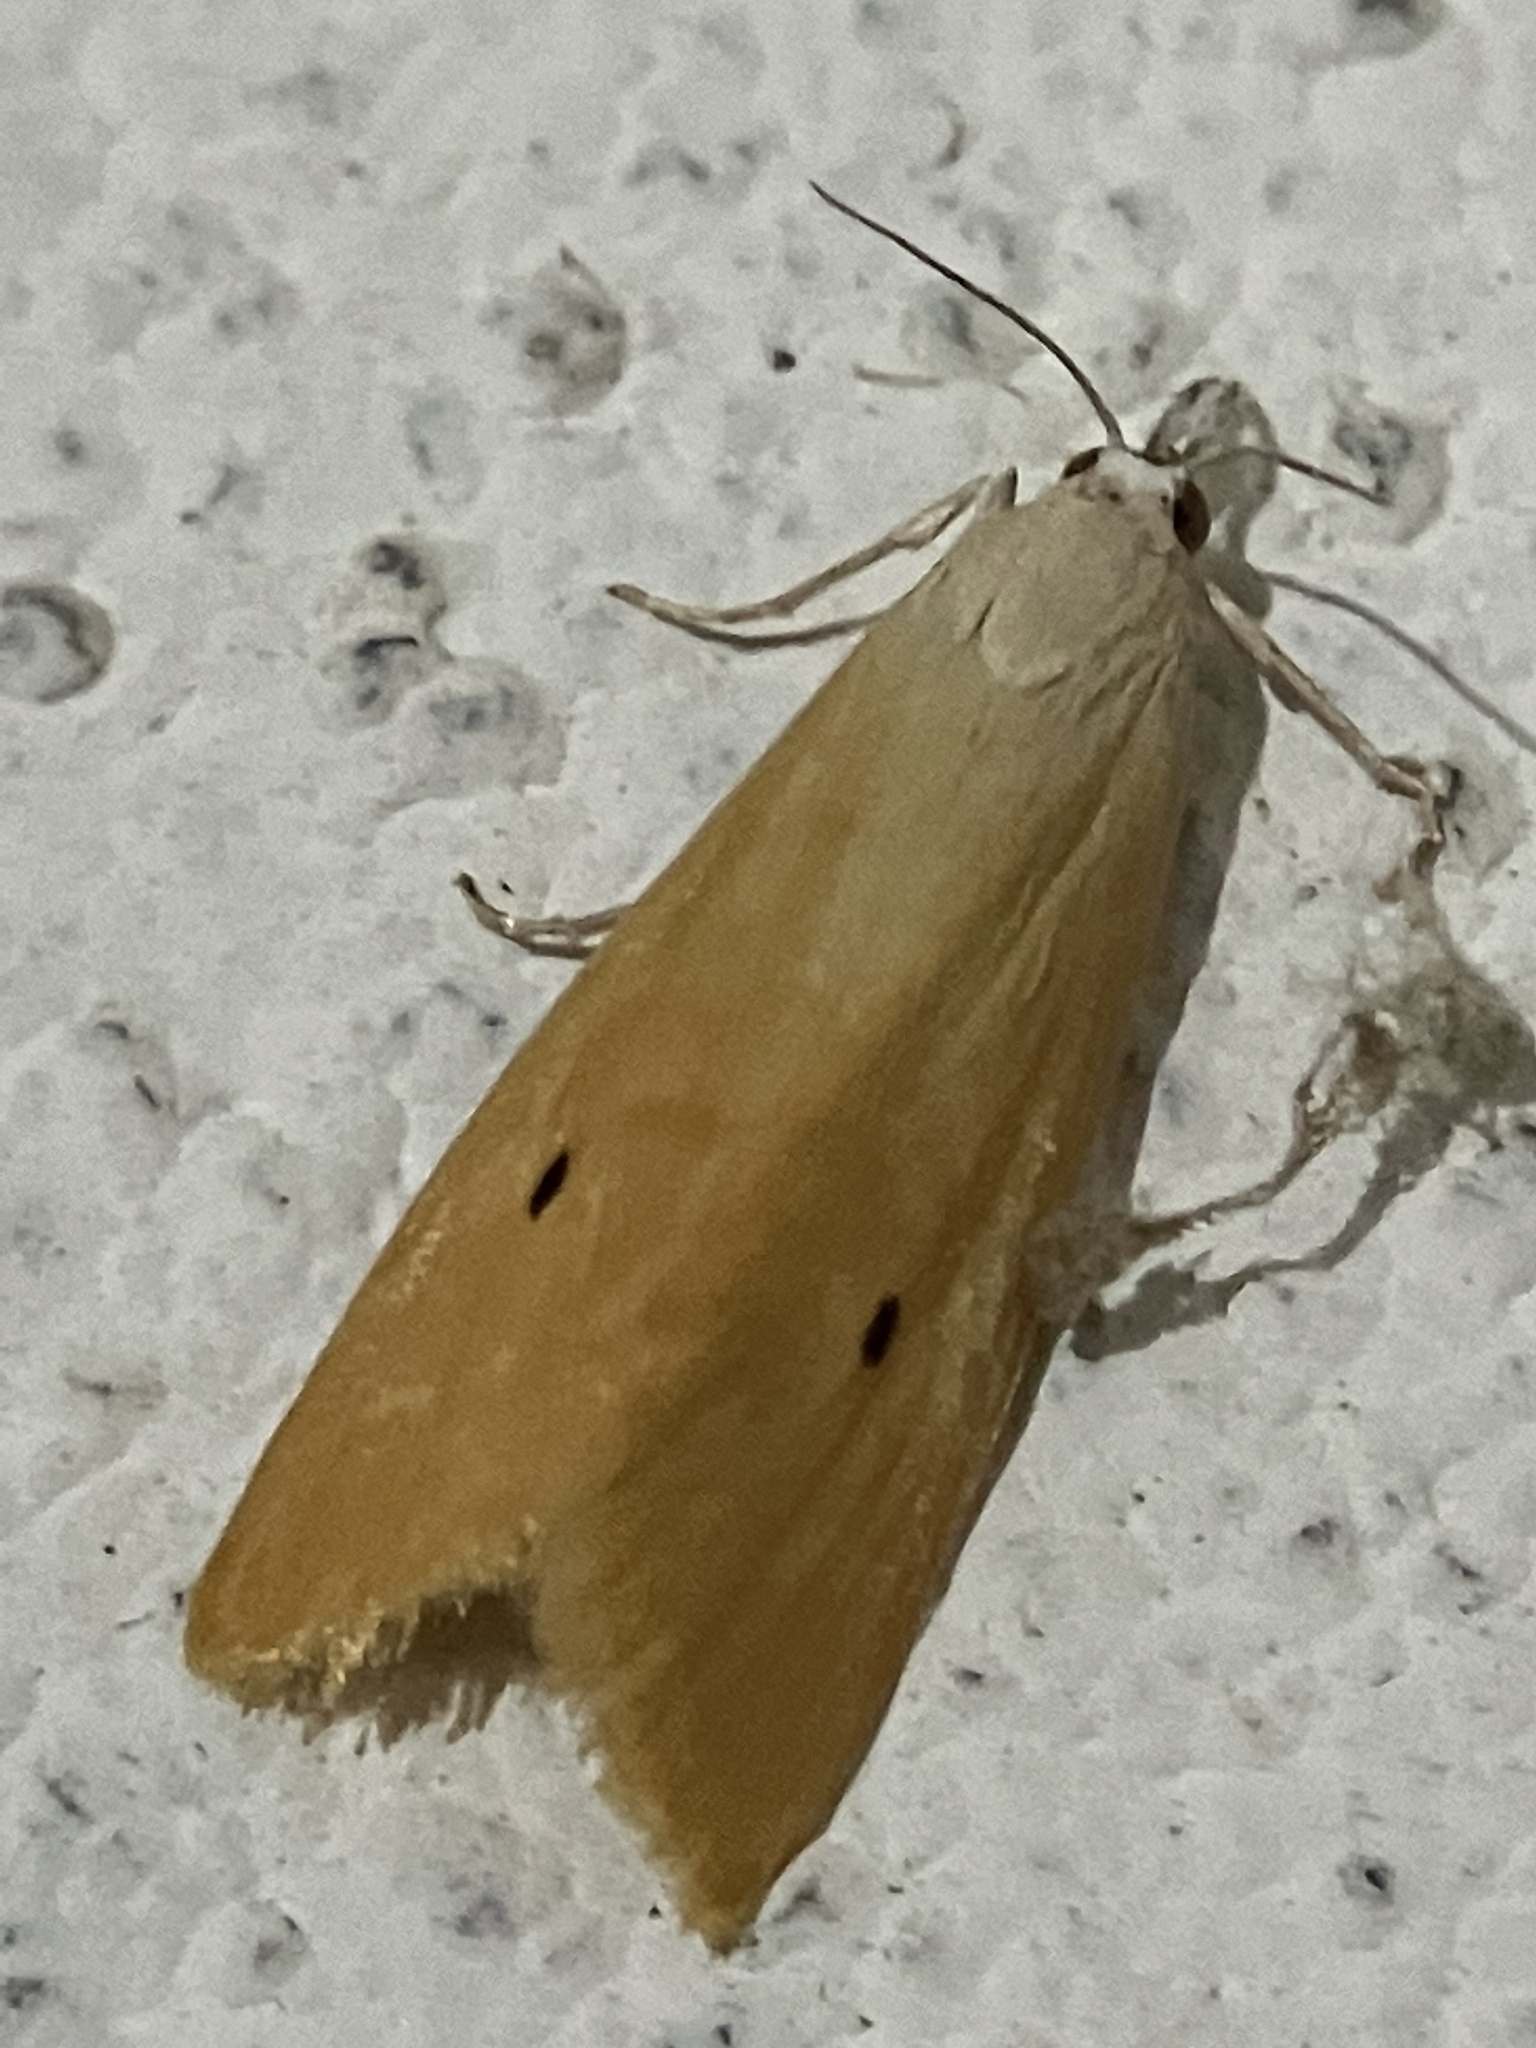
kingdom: Animalia
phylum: Arthropoda
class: Insecta
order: Lepidoptera
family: Crambidae
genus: Scirpophaga
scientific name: Scirpophaga incertulas
